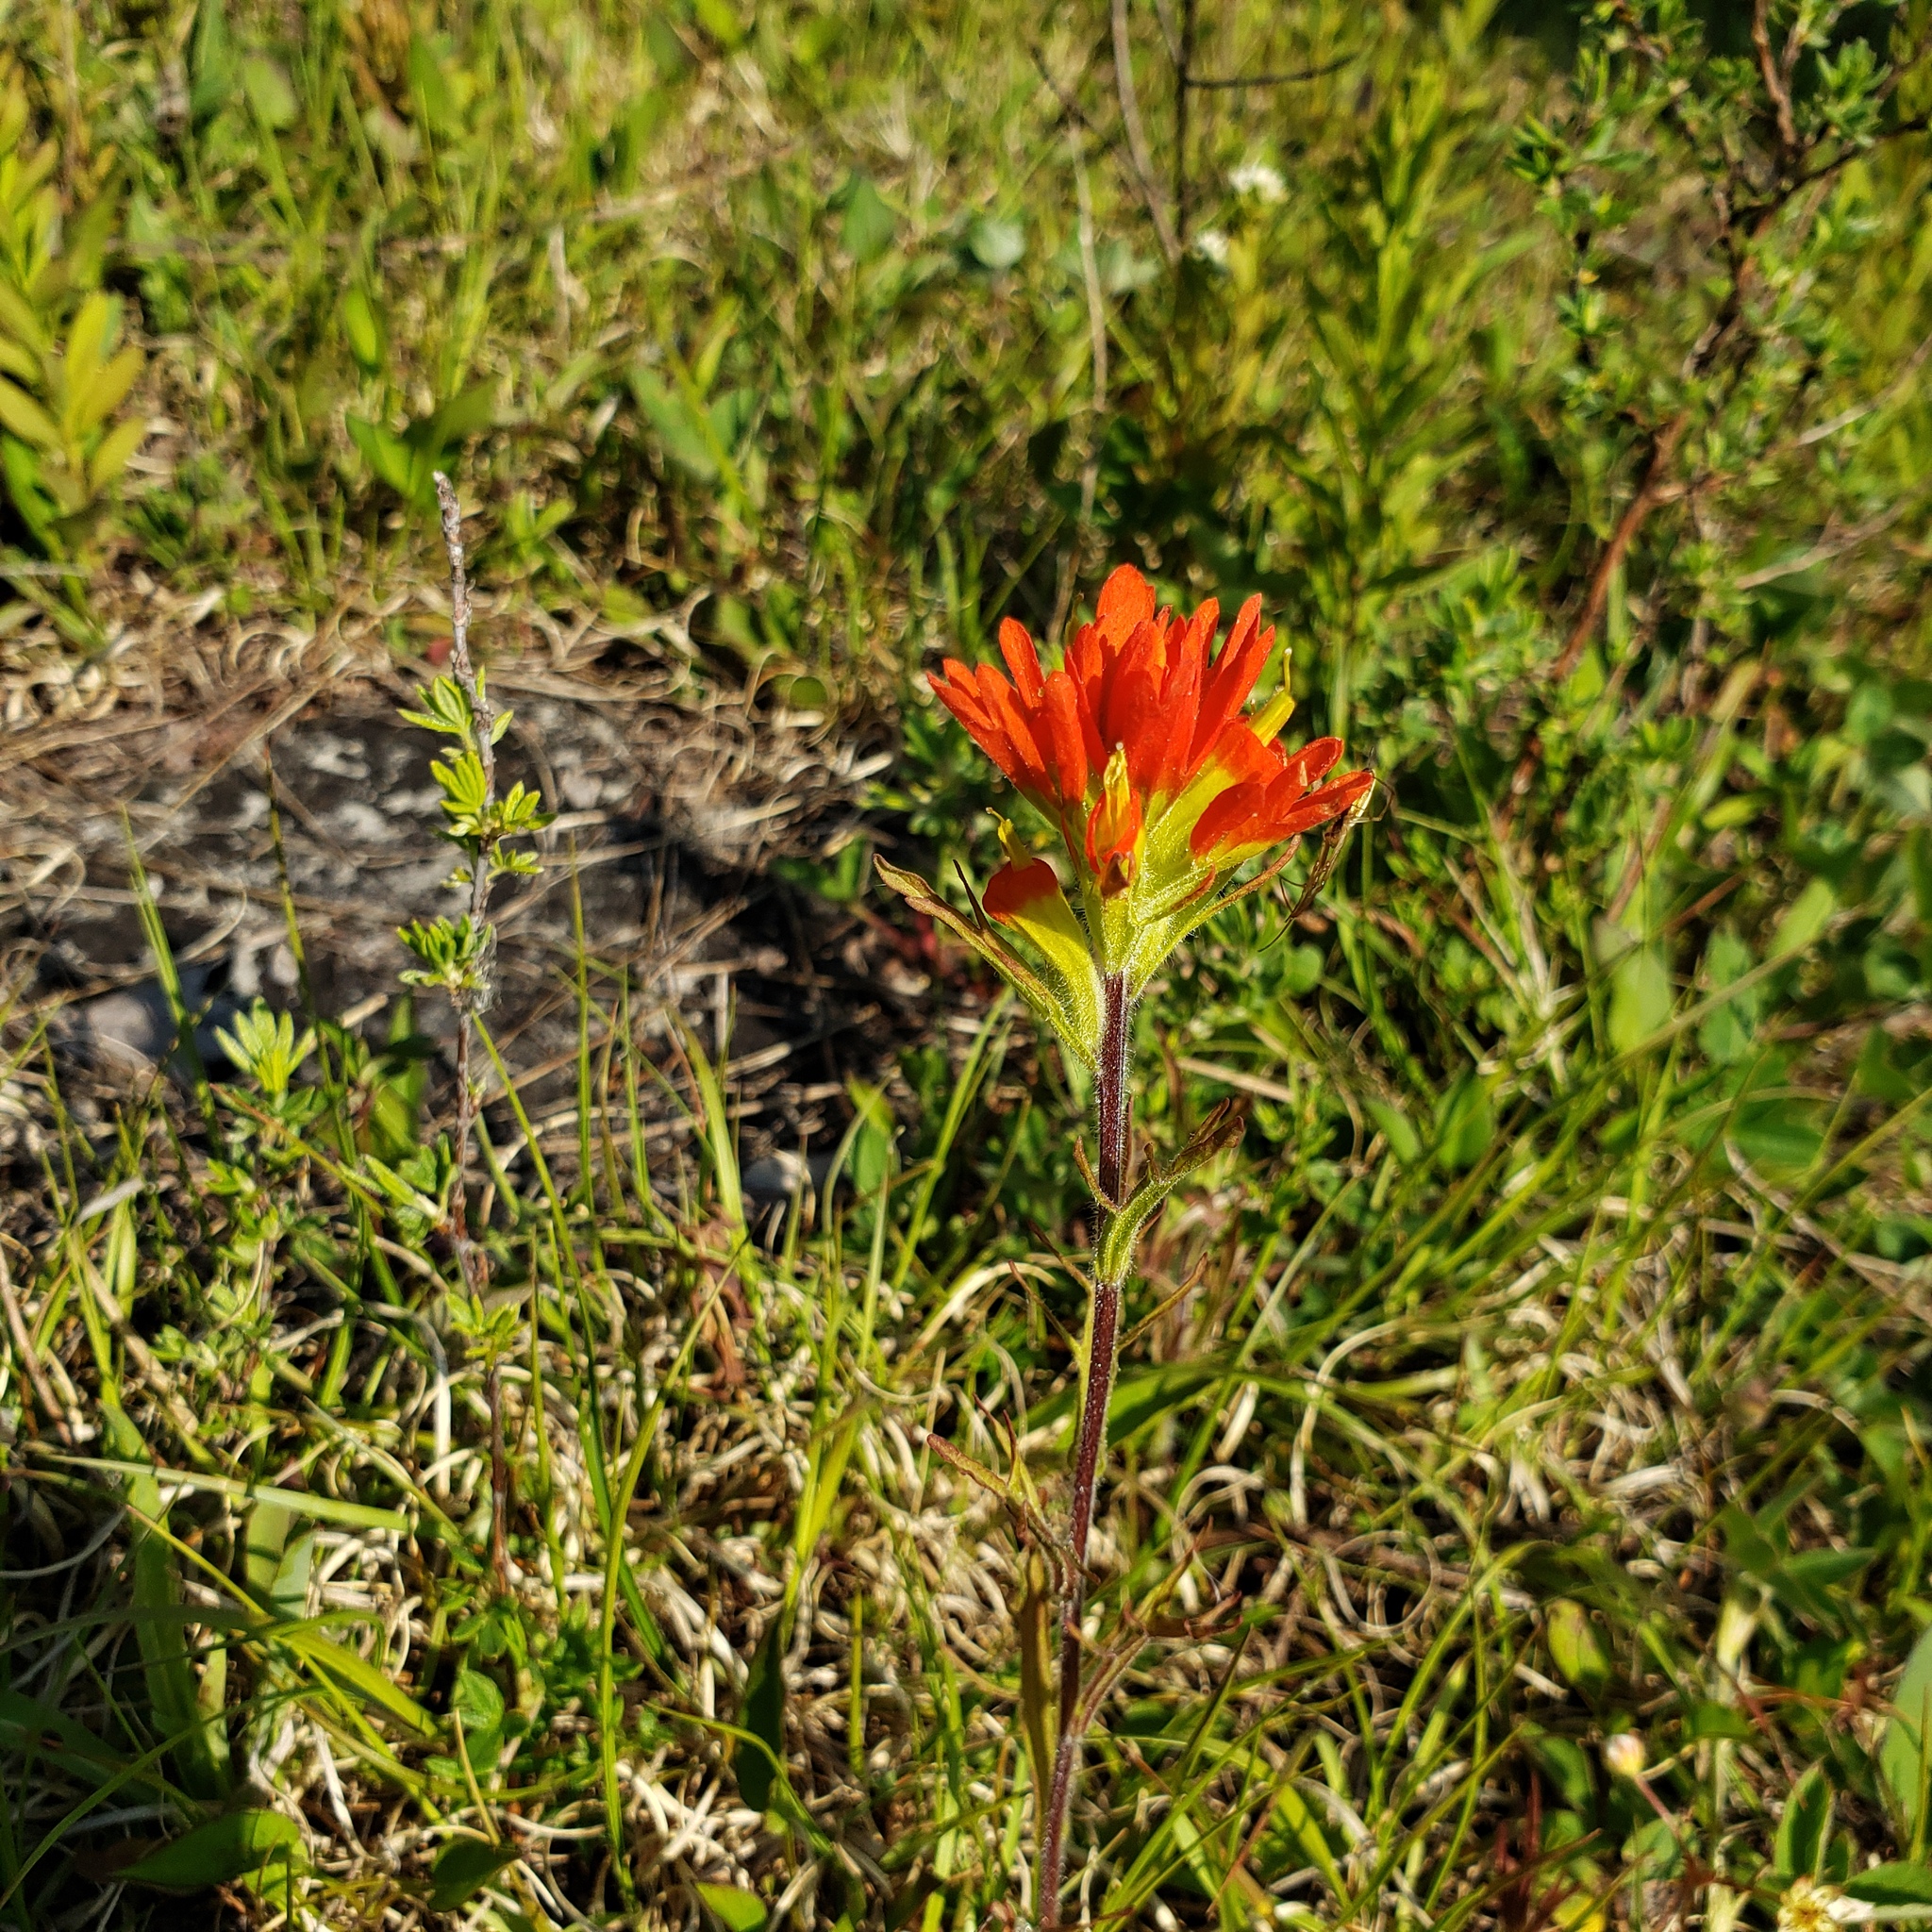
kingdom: Plantae
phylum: Tracheophyta
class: Magnoliopsida
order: Lamiales
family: Orobanchaceae
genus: Castilleja
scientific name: Castilleja coccinea
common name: Scarlet paintbrush
